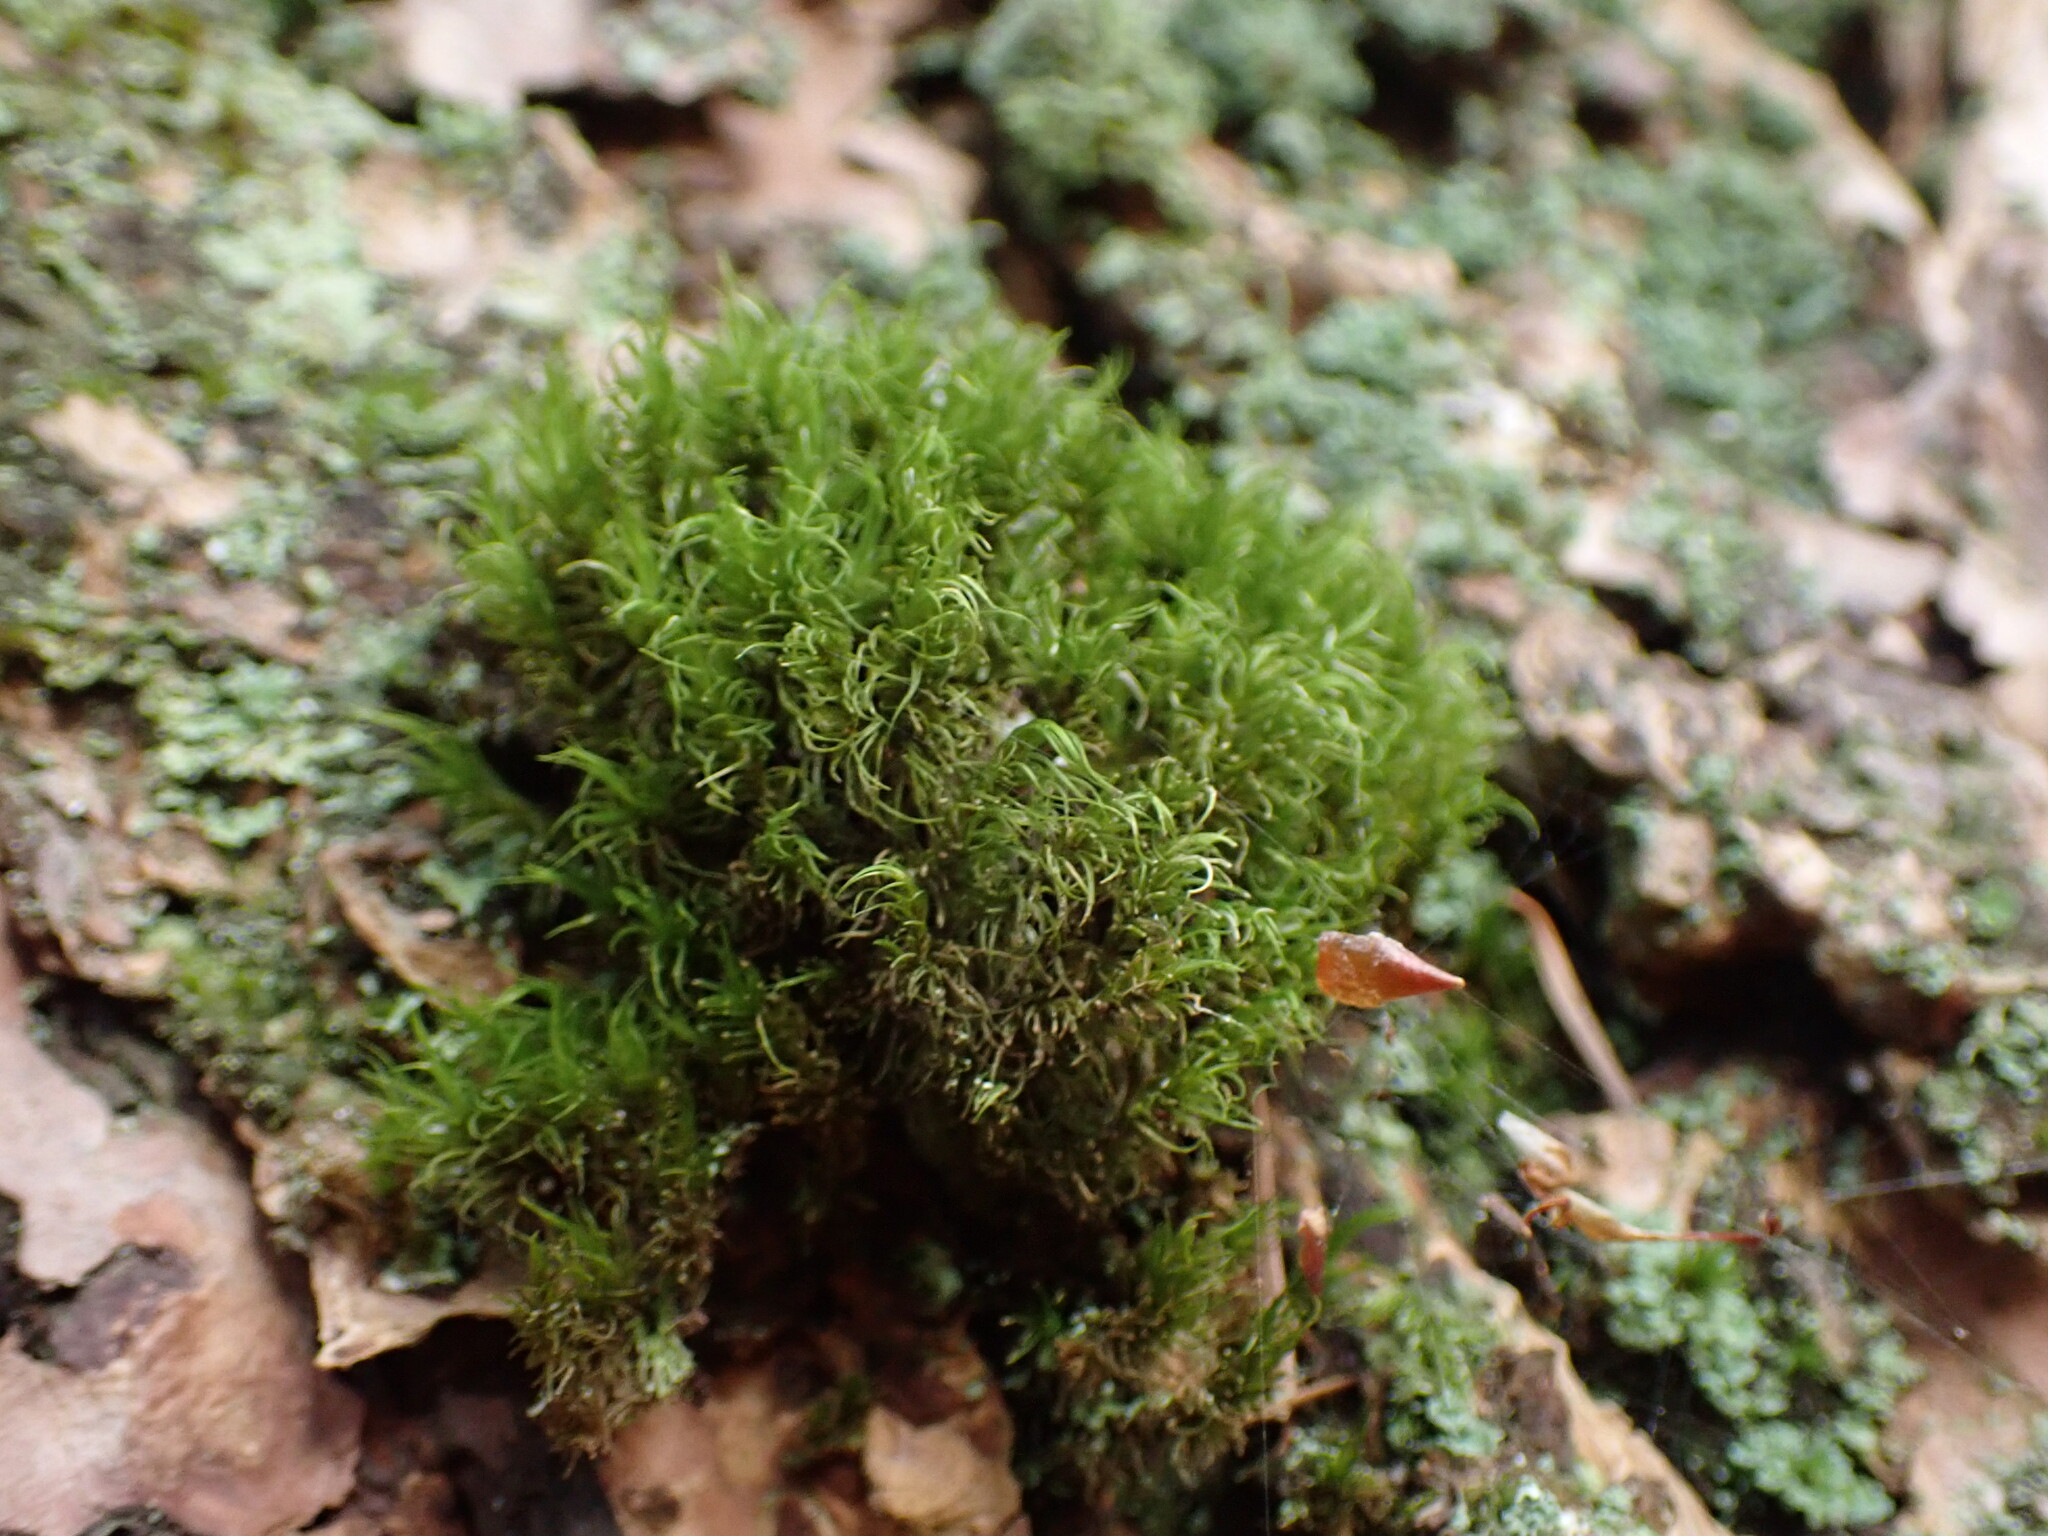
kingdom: Plantae
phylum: Bryophyta
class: Bryopsida
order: Dicranales
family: Dicranaceae
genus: Dicranum
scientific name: Dicranum fuscescens
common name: Curly heron's-bill moss
